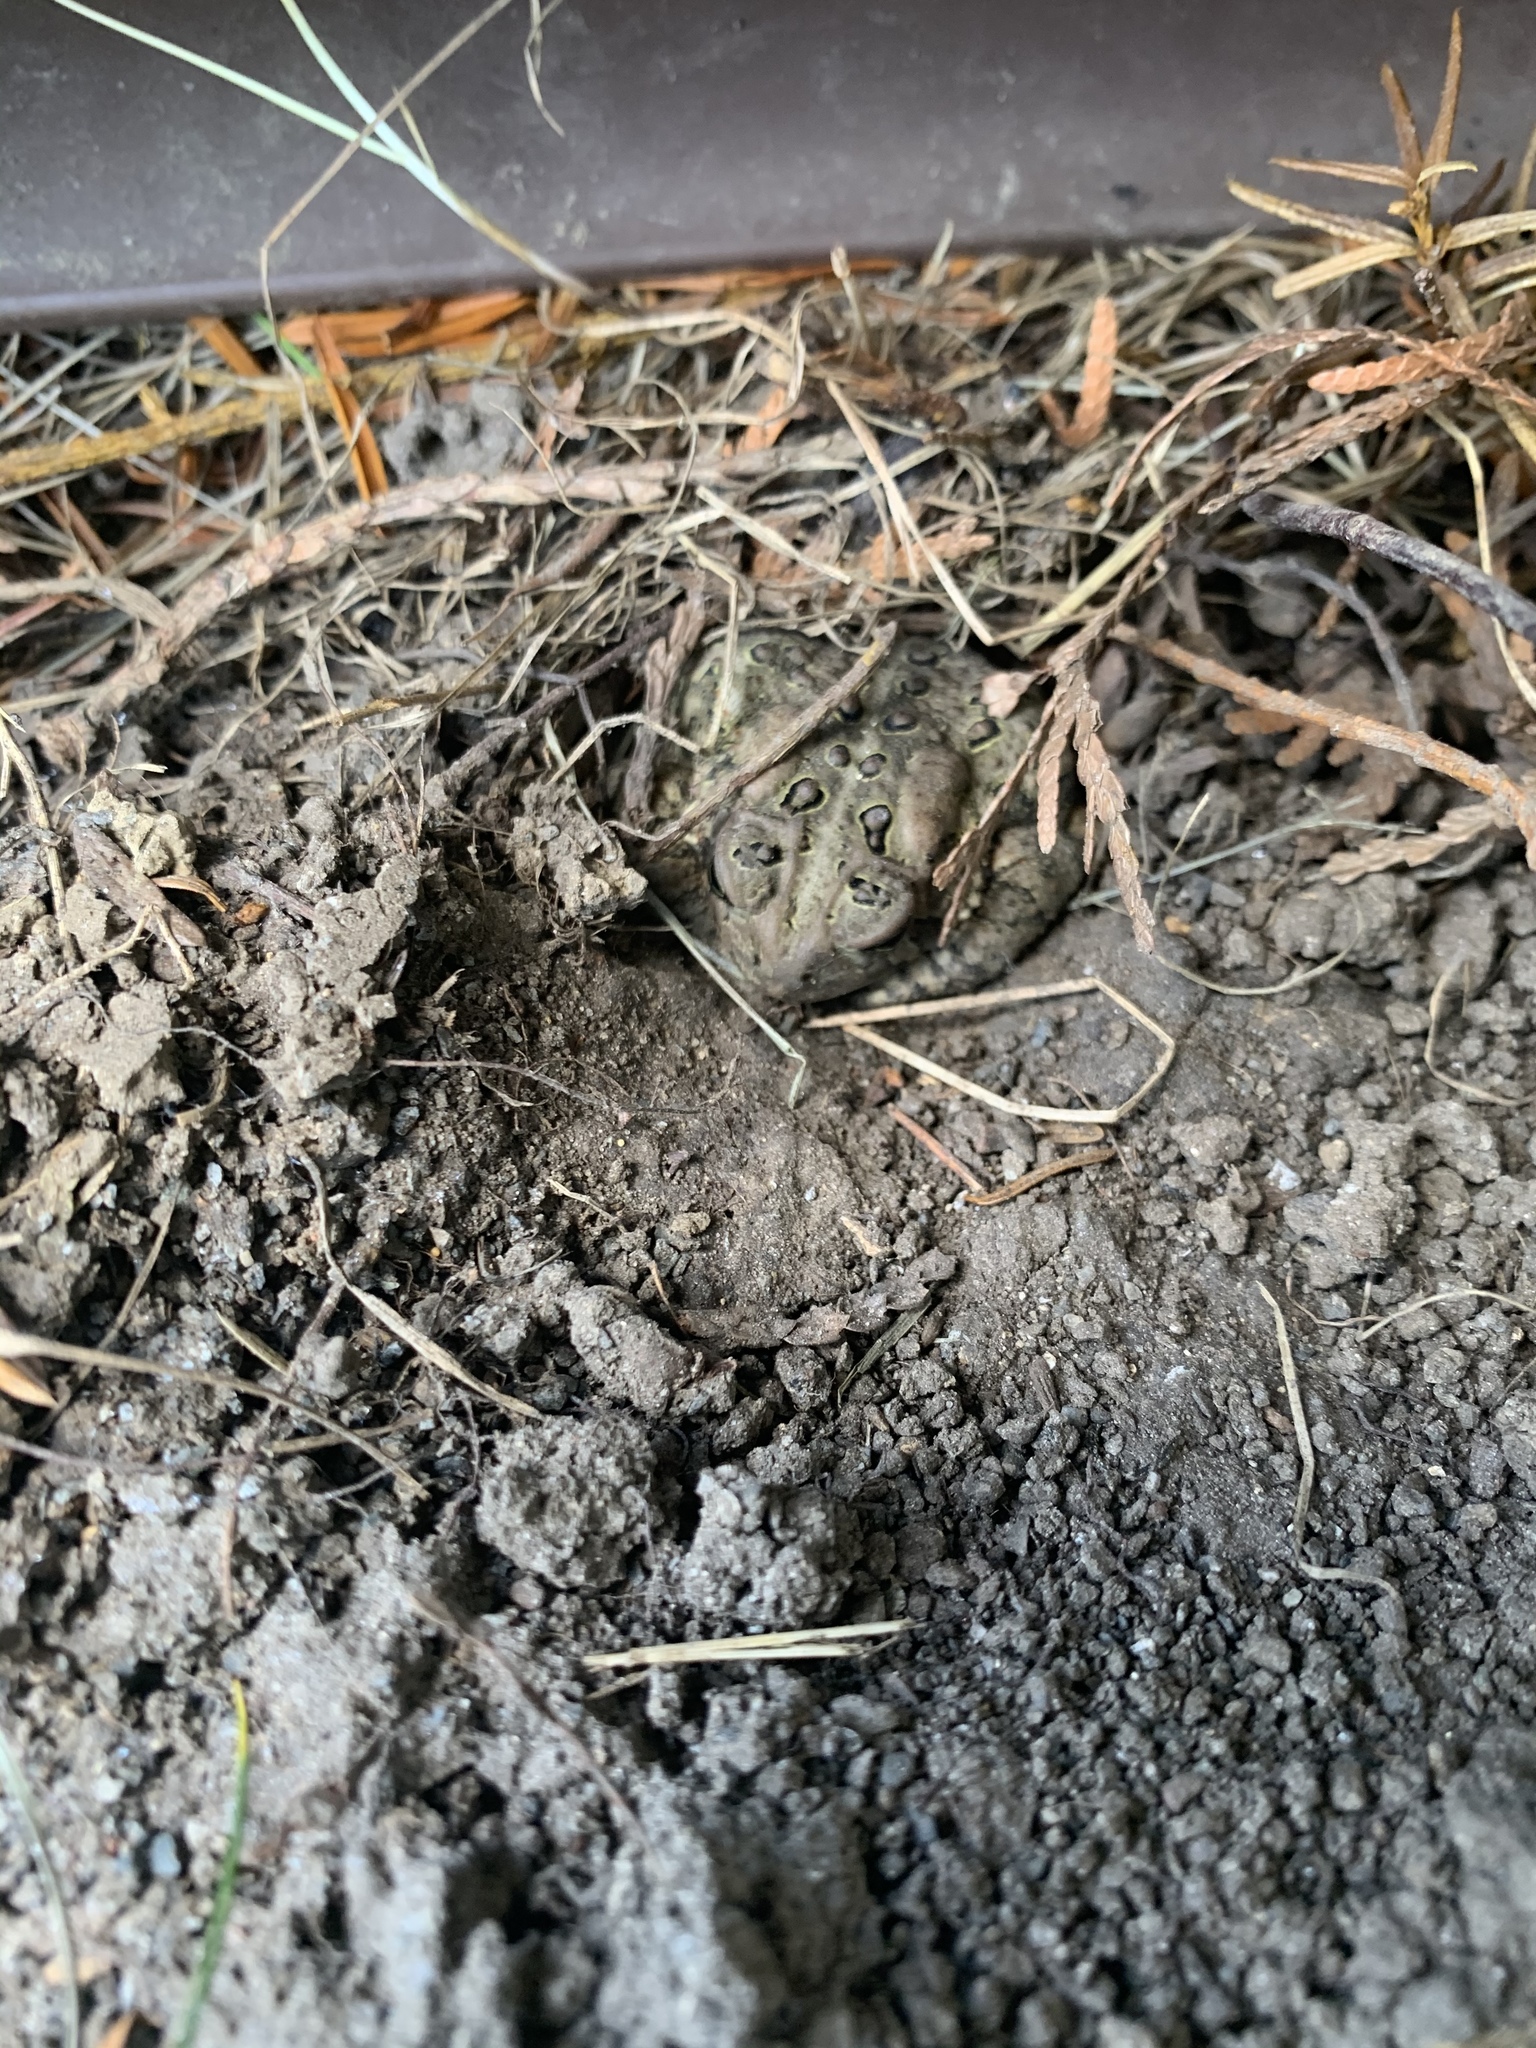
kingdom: Animalia
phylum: Chordata
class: Amphibia
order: Anura
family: Bufonidae
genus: Anaxyrus
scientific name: Anaxyrus americanus
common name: American toad
